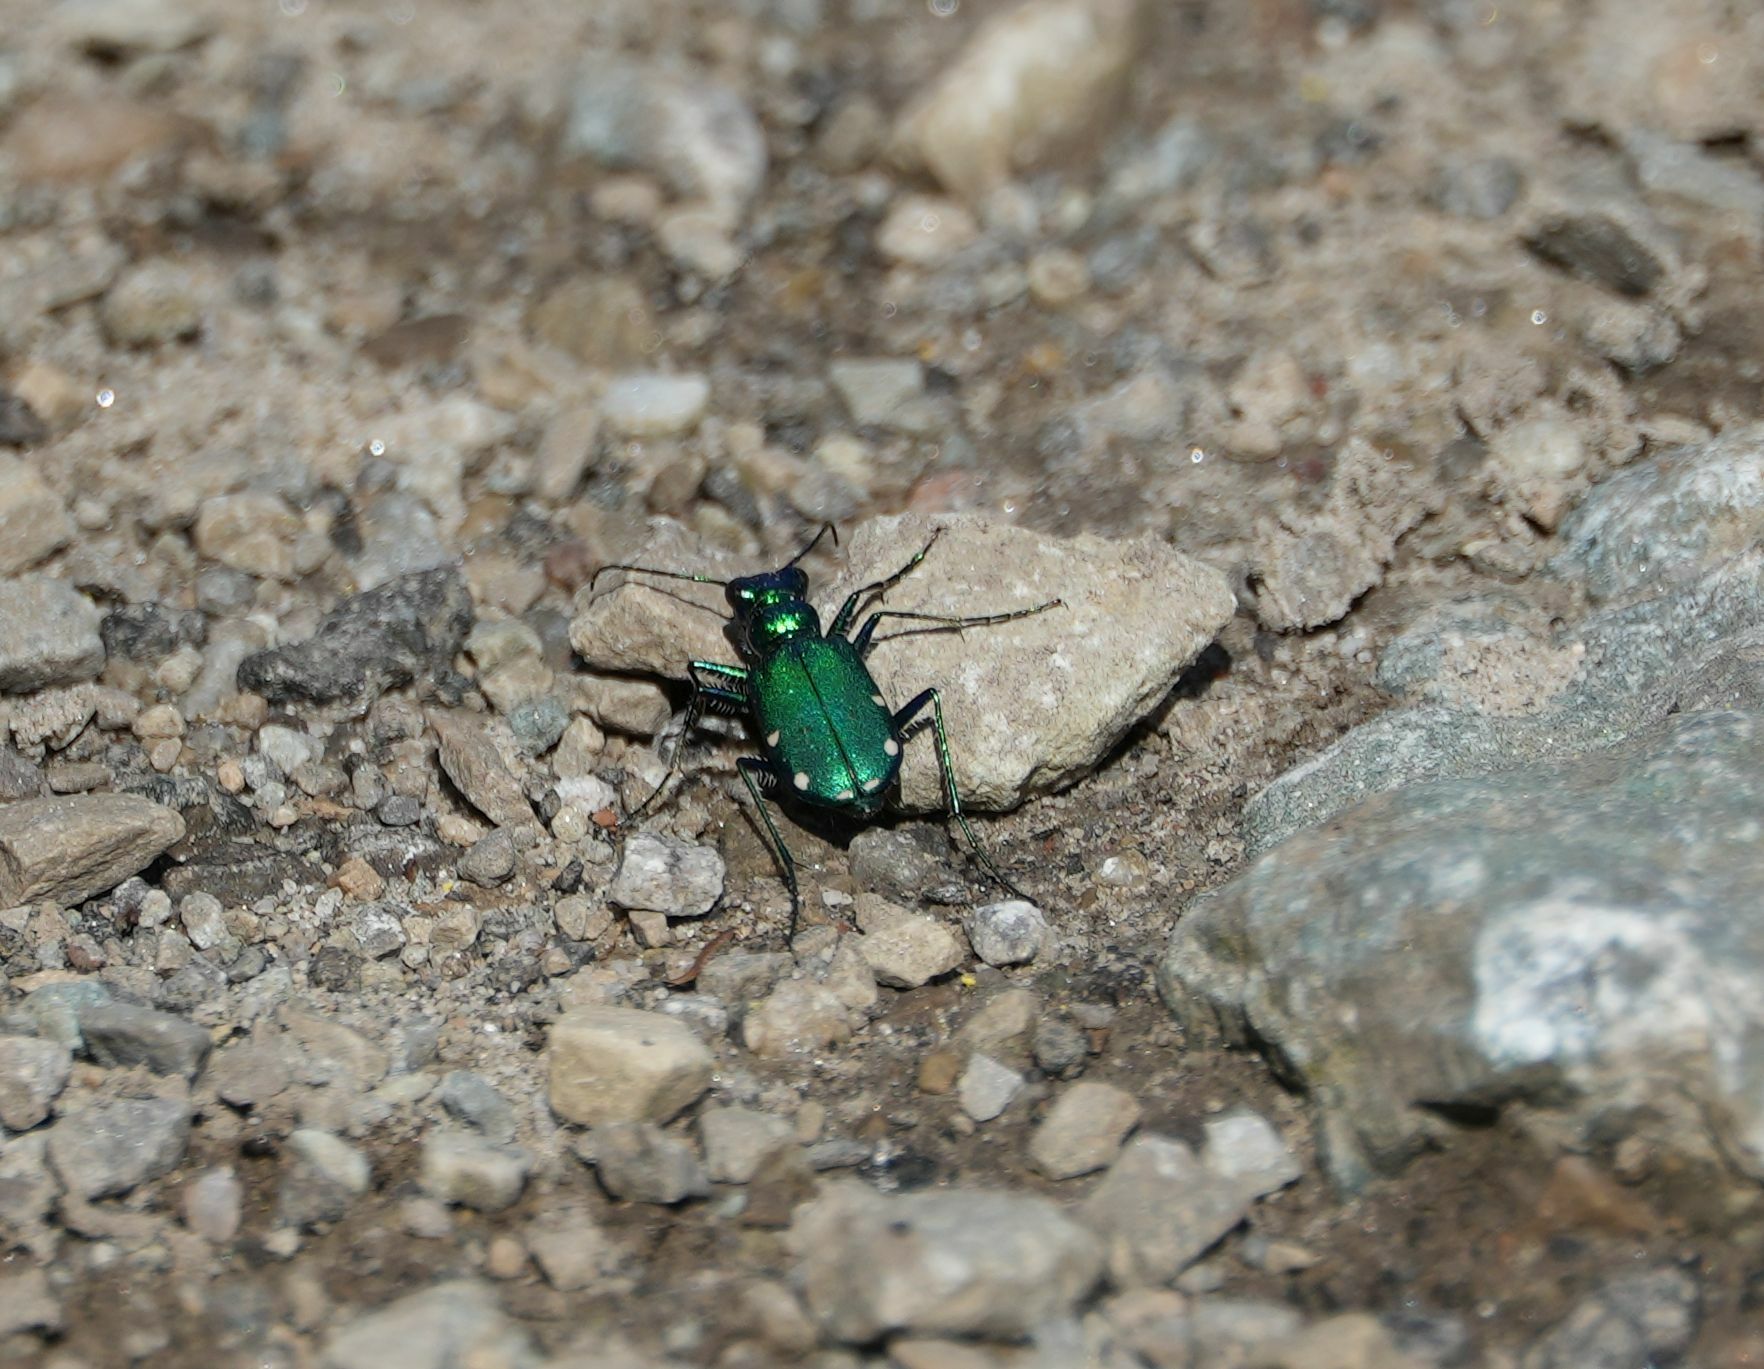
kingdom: Animalia
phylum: Arthropoda
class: Insecta
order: Coleoptera
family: Carabidae
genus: Cicindela
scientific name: Cicindela sexguttata
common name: Six-spotted tiger beetle
